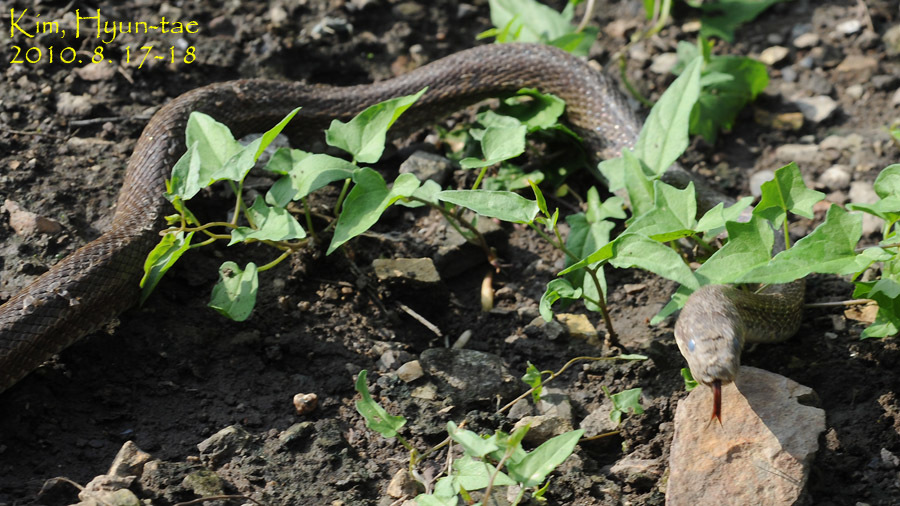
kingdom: Animalia
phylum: Chordata
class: Squamata
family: Colubridae
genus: Elaphe
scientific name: Elaphe dione
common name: Dione ratsnake
